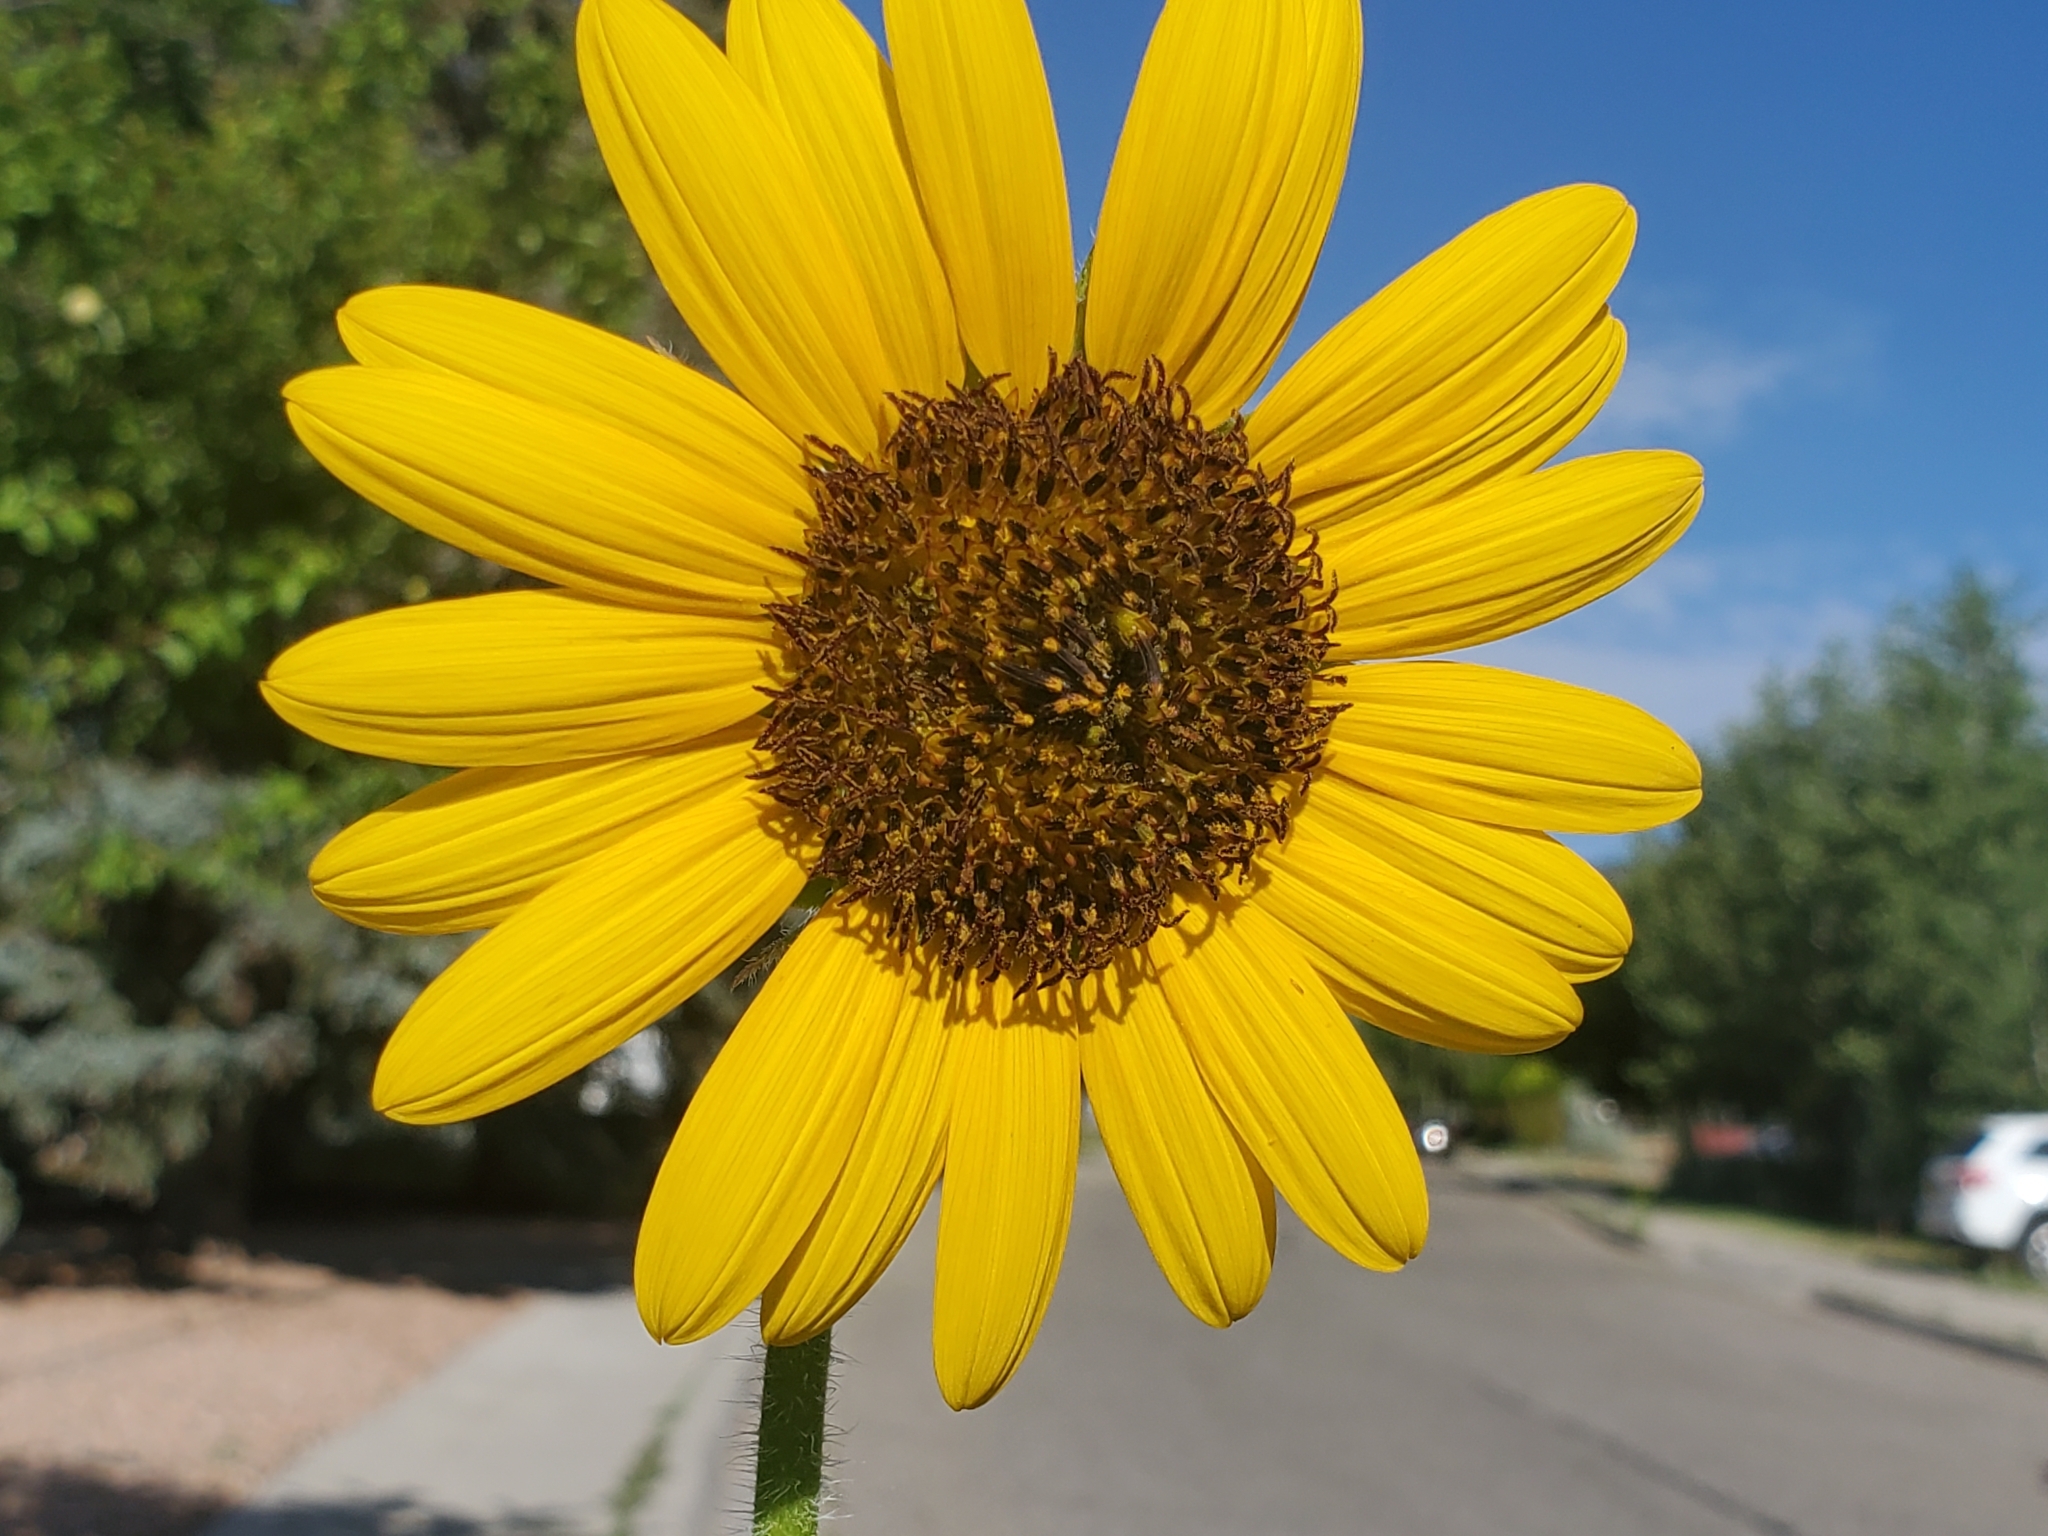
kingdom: Plantae
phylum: Tracheophyta
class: Magnoliopsida
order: Asterales
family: Asteraceae
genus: Helianthus
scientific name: Helianthus annuus
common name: Sunflower
